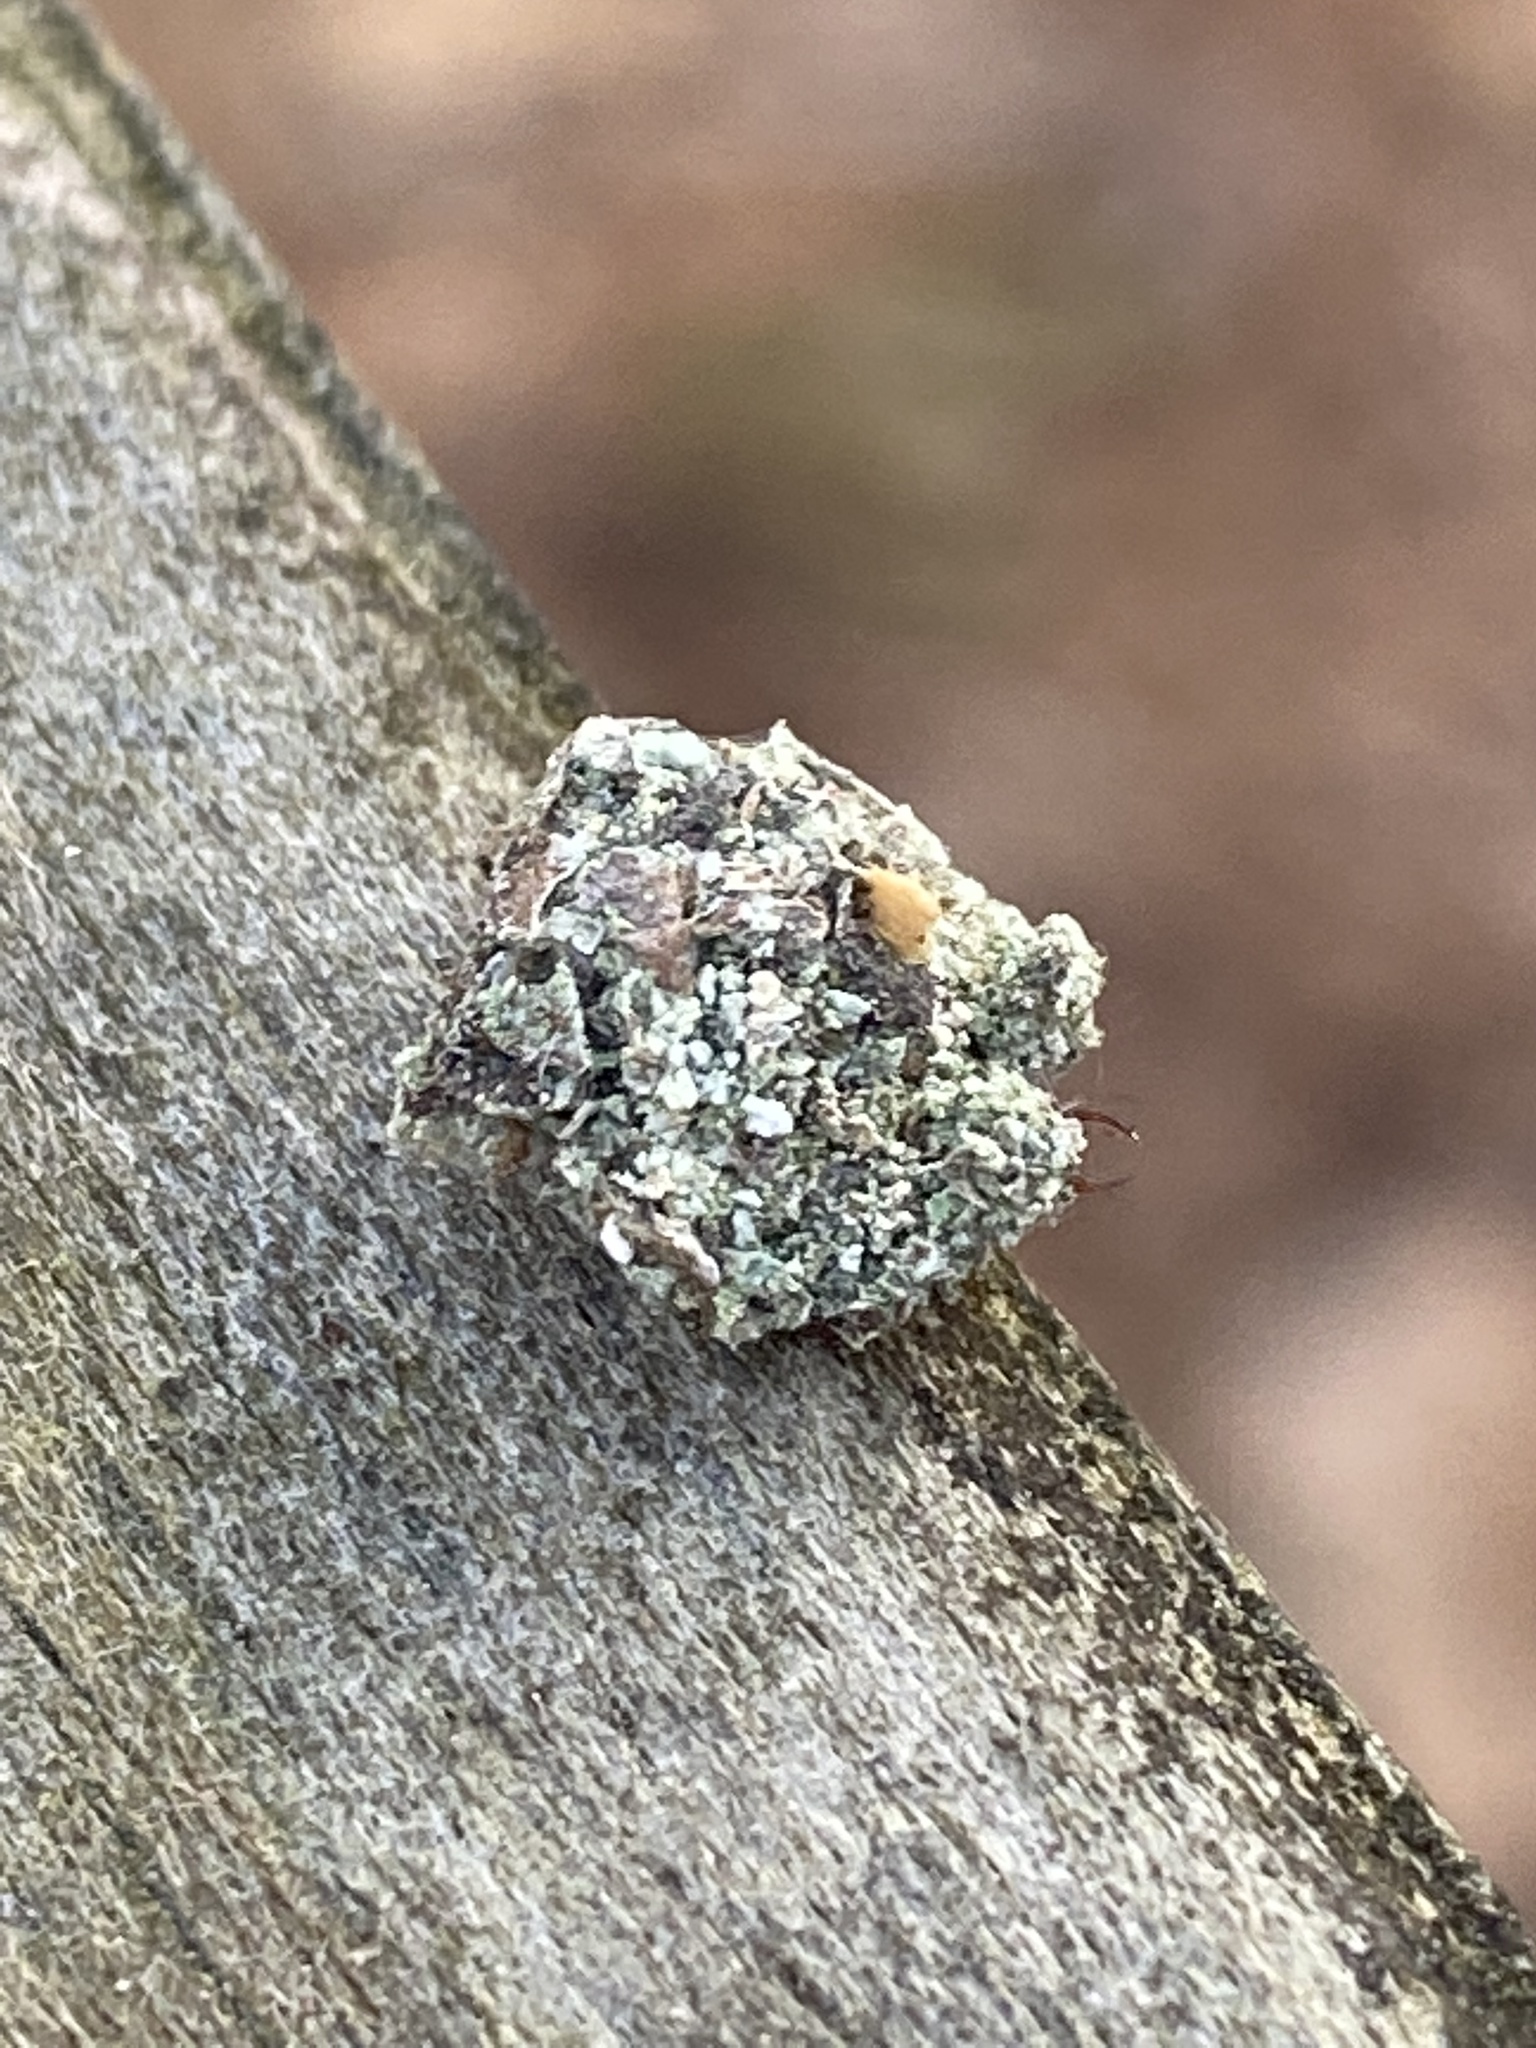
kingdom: Animalia
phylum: Arthropoda
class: Insecta
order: Neuroptera
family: Chrysopidae
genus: Leucochrysa
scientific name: Leucochrysa pavida
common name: Lichen-carrying green lacewing
